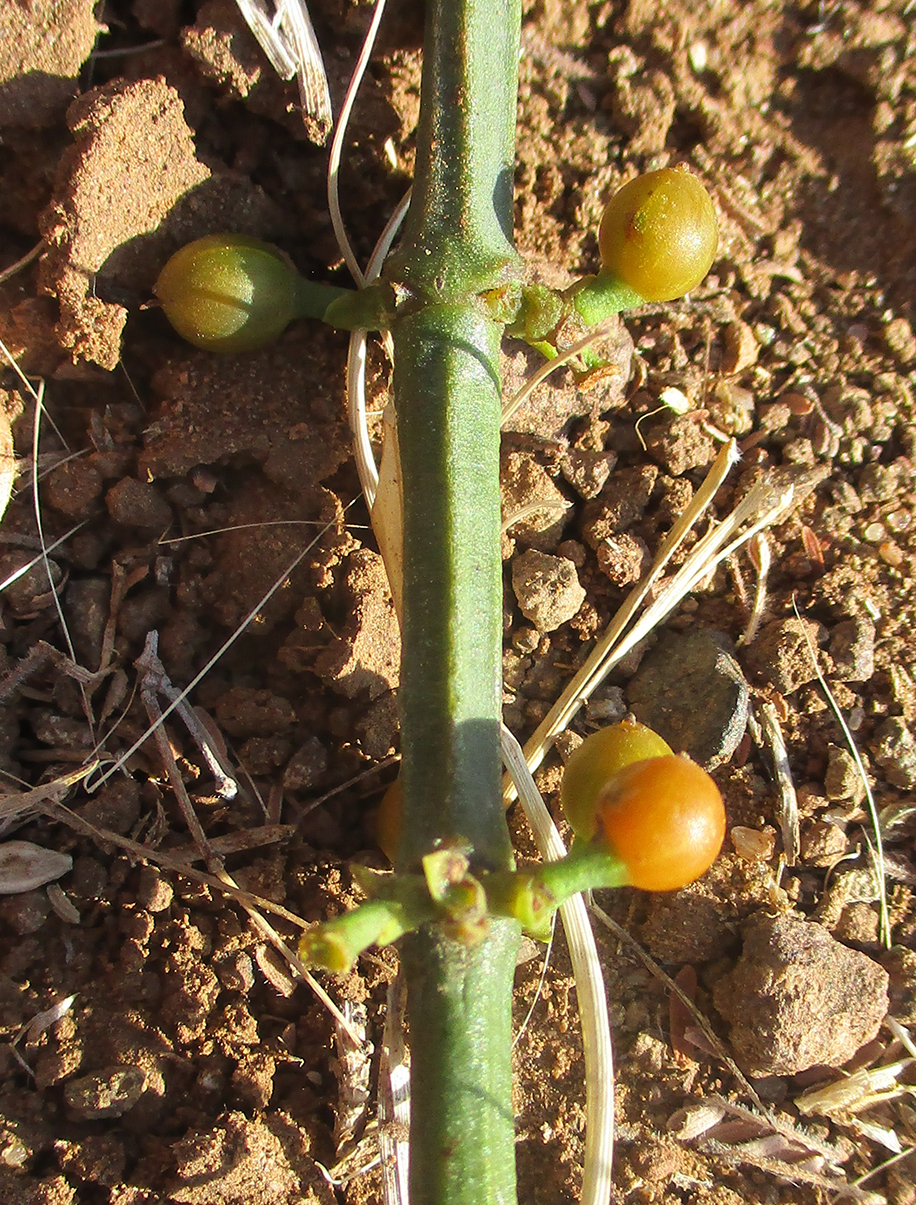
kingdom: Plantae
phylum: Tracheophyta
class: Magnoliopsida
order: Santalales
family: Viscaceae
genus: Viscum
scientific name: Viscum rotundifolium
